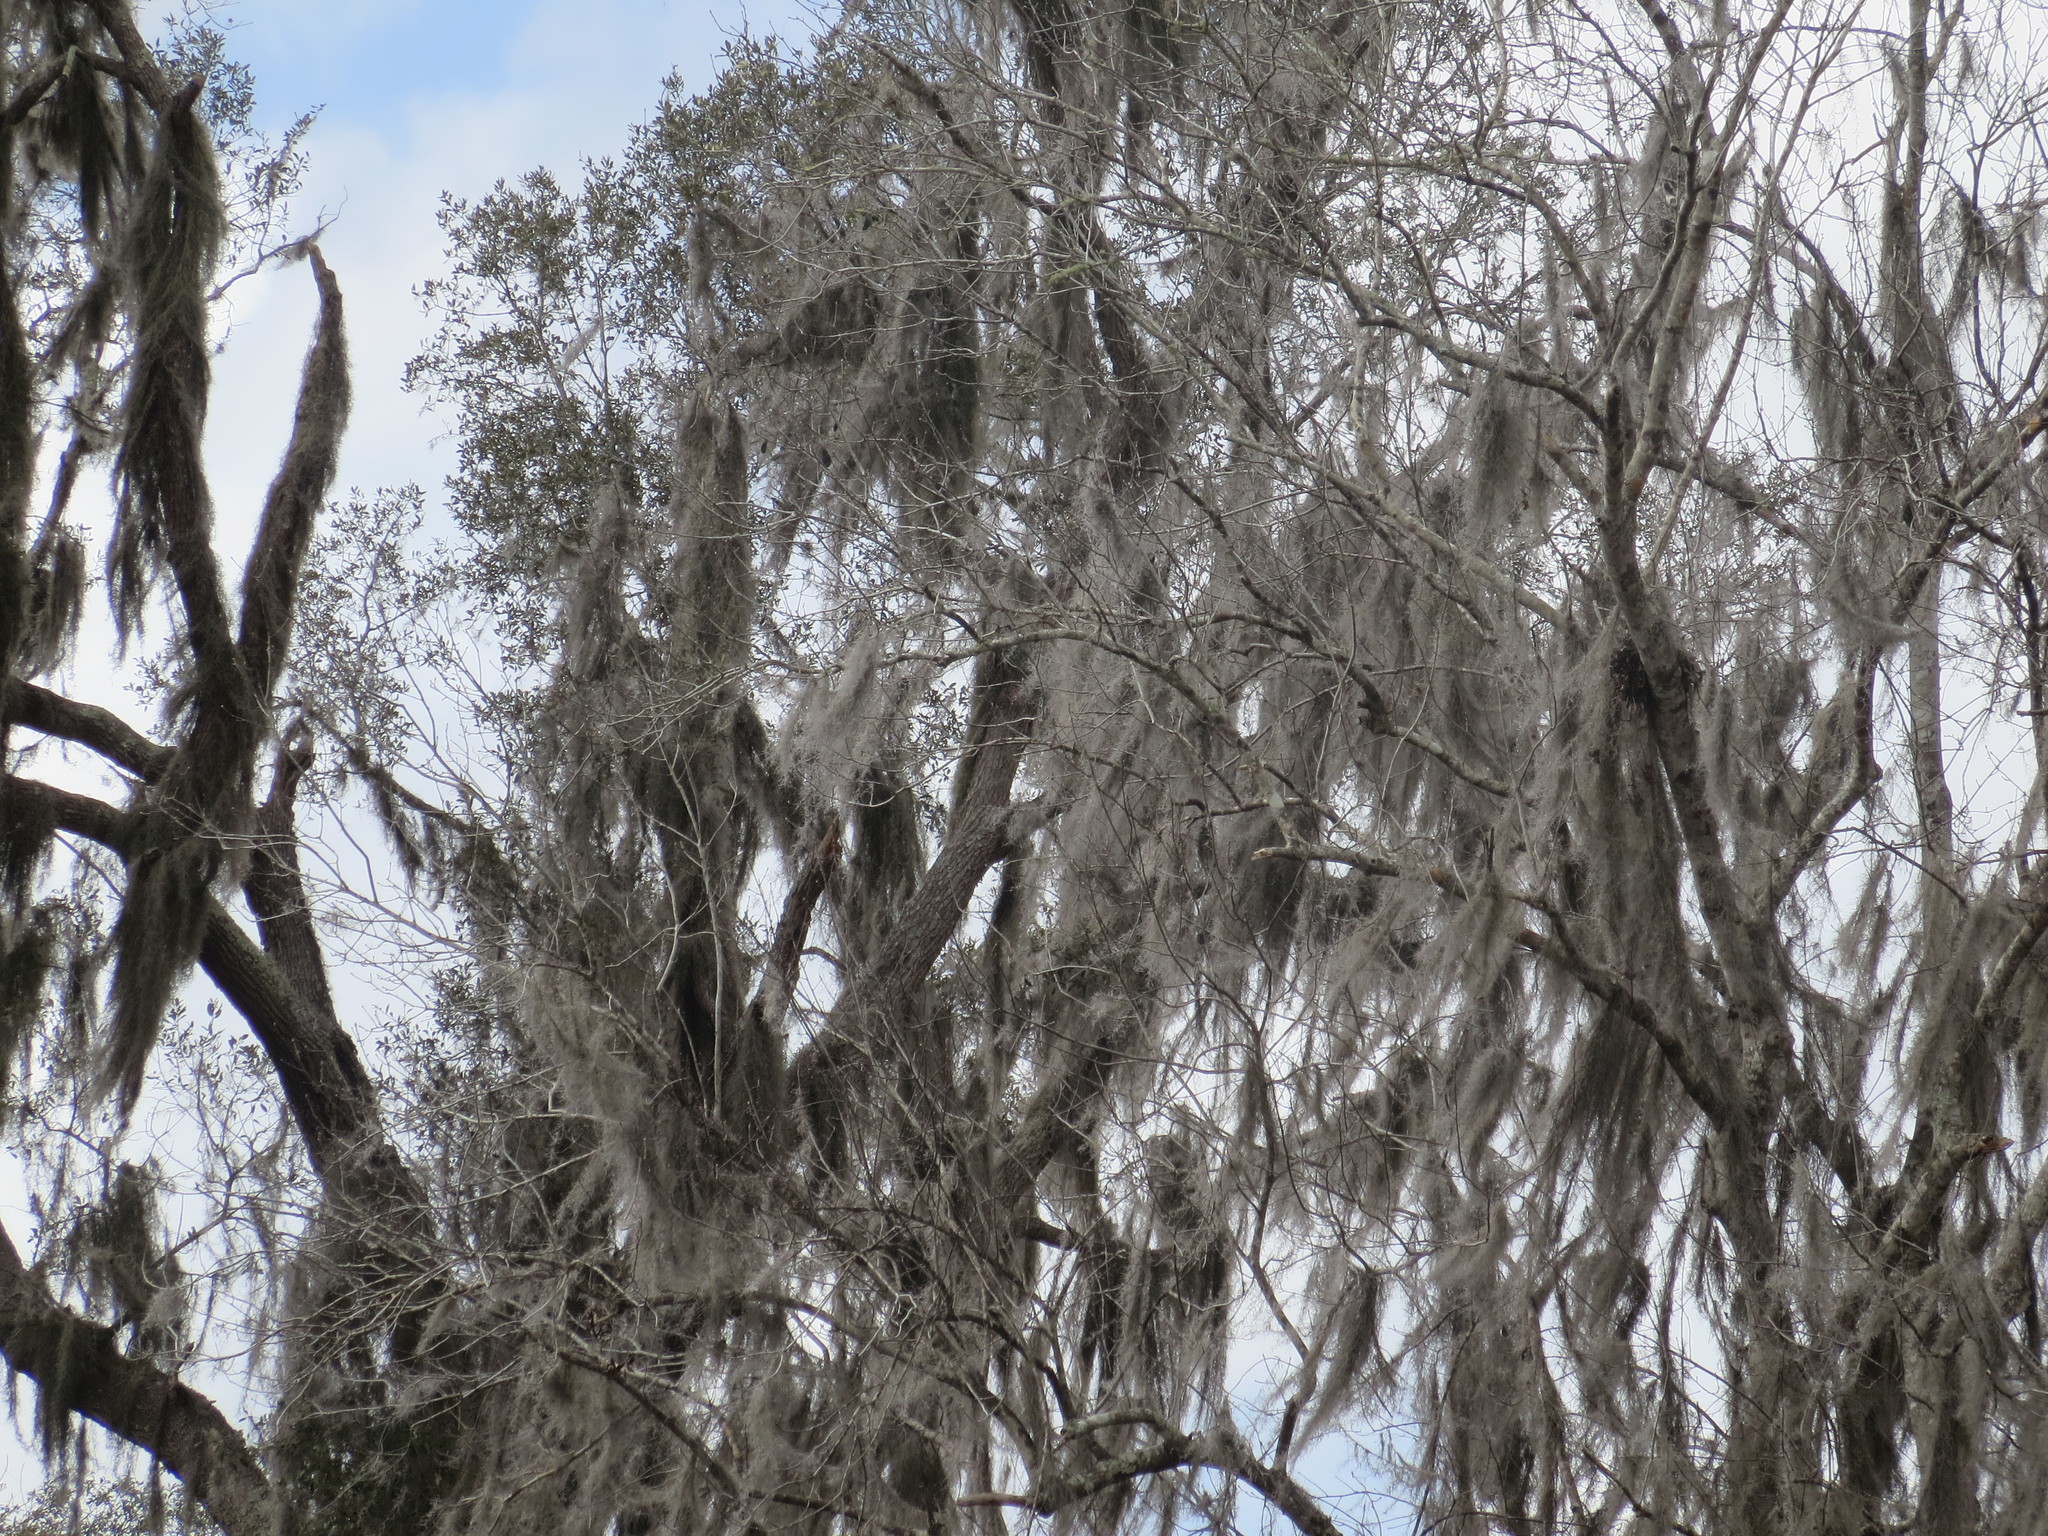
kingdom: Plantae
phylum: Tracheophyta
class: Liliopsida
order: Poales
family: Bromeliaceae
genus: Tillandsia
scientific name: Tillandsia usneoides
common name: Spanish moss
